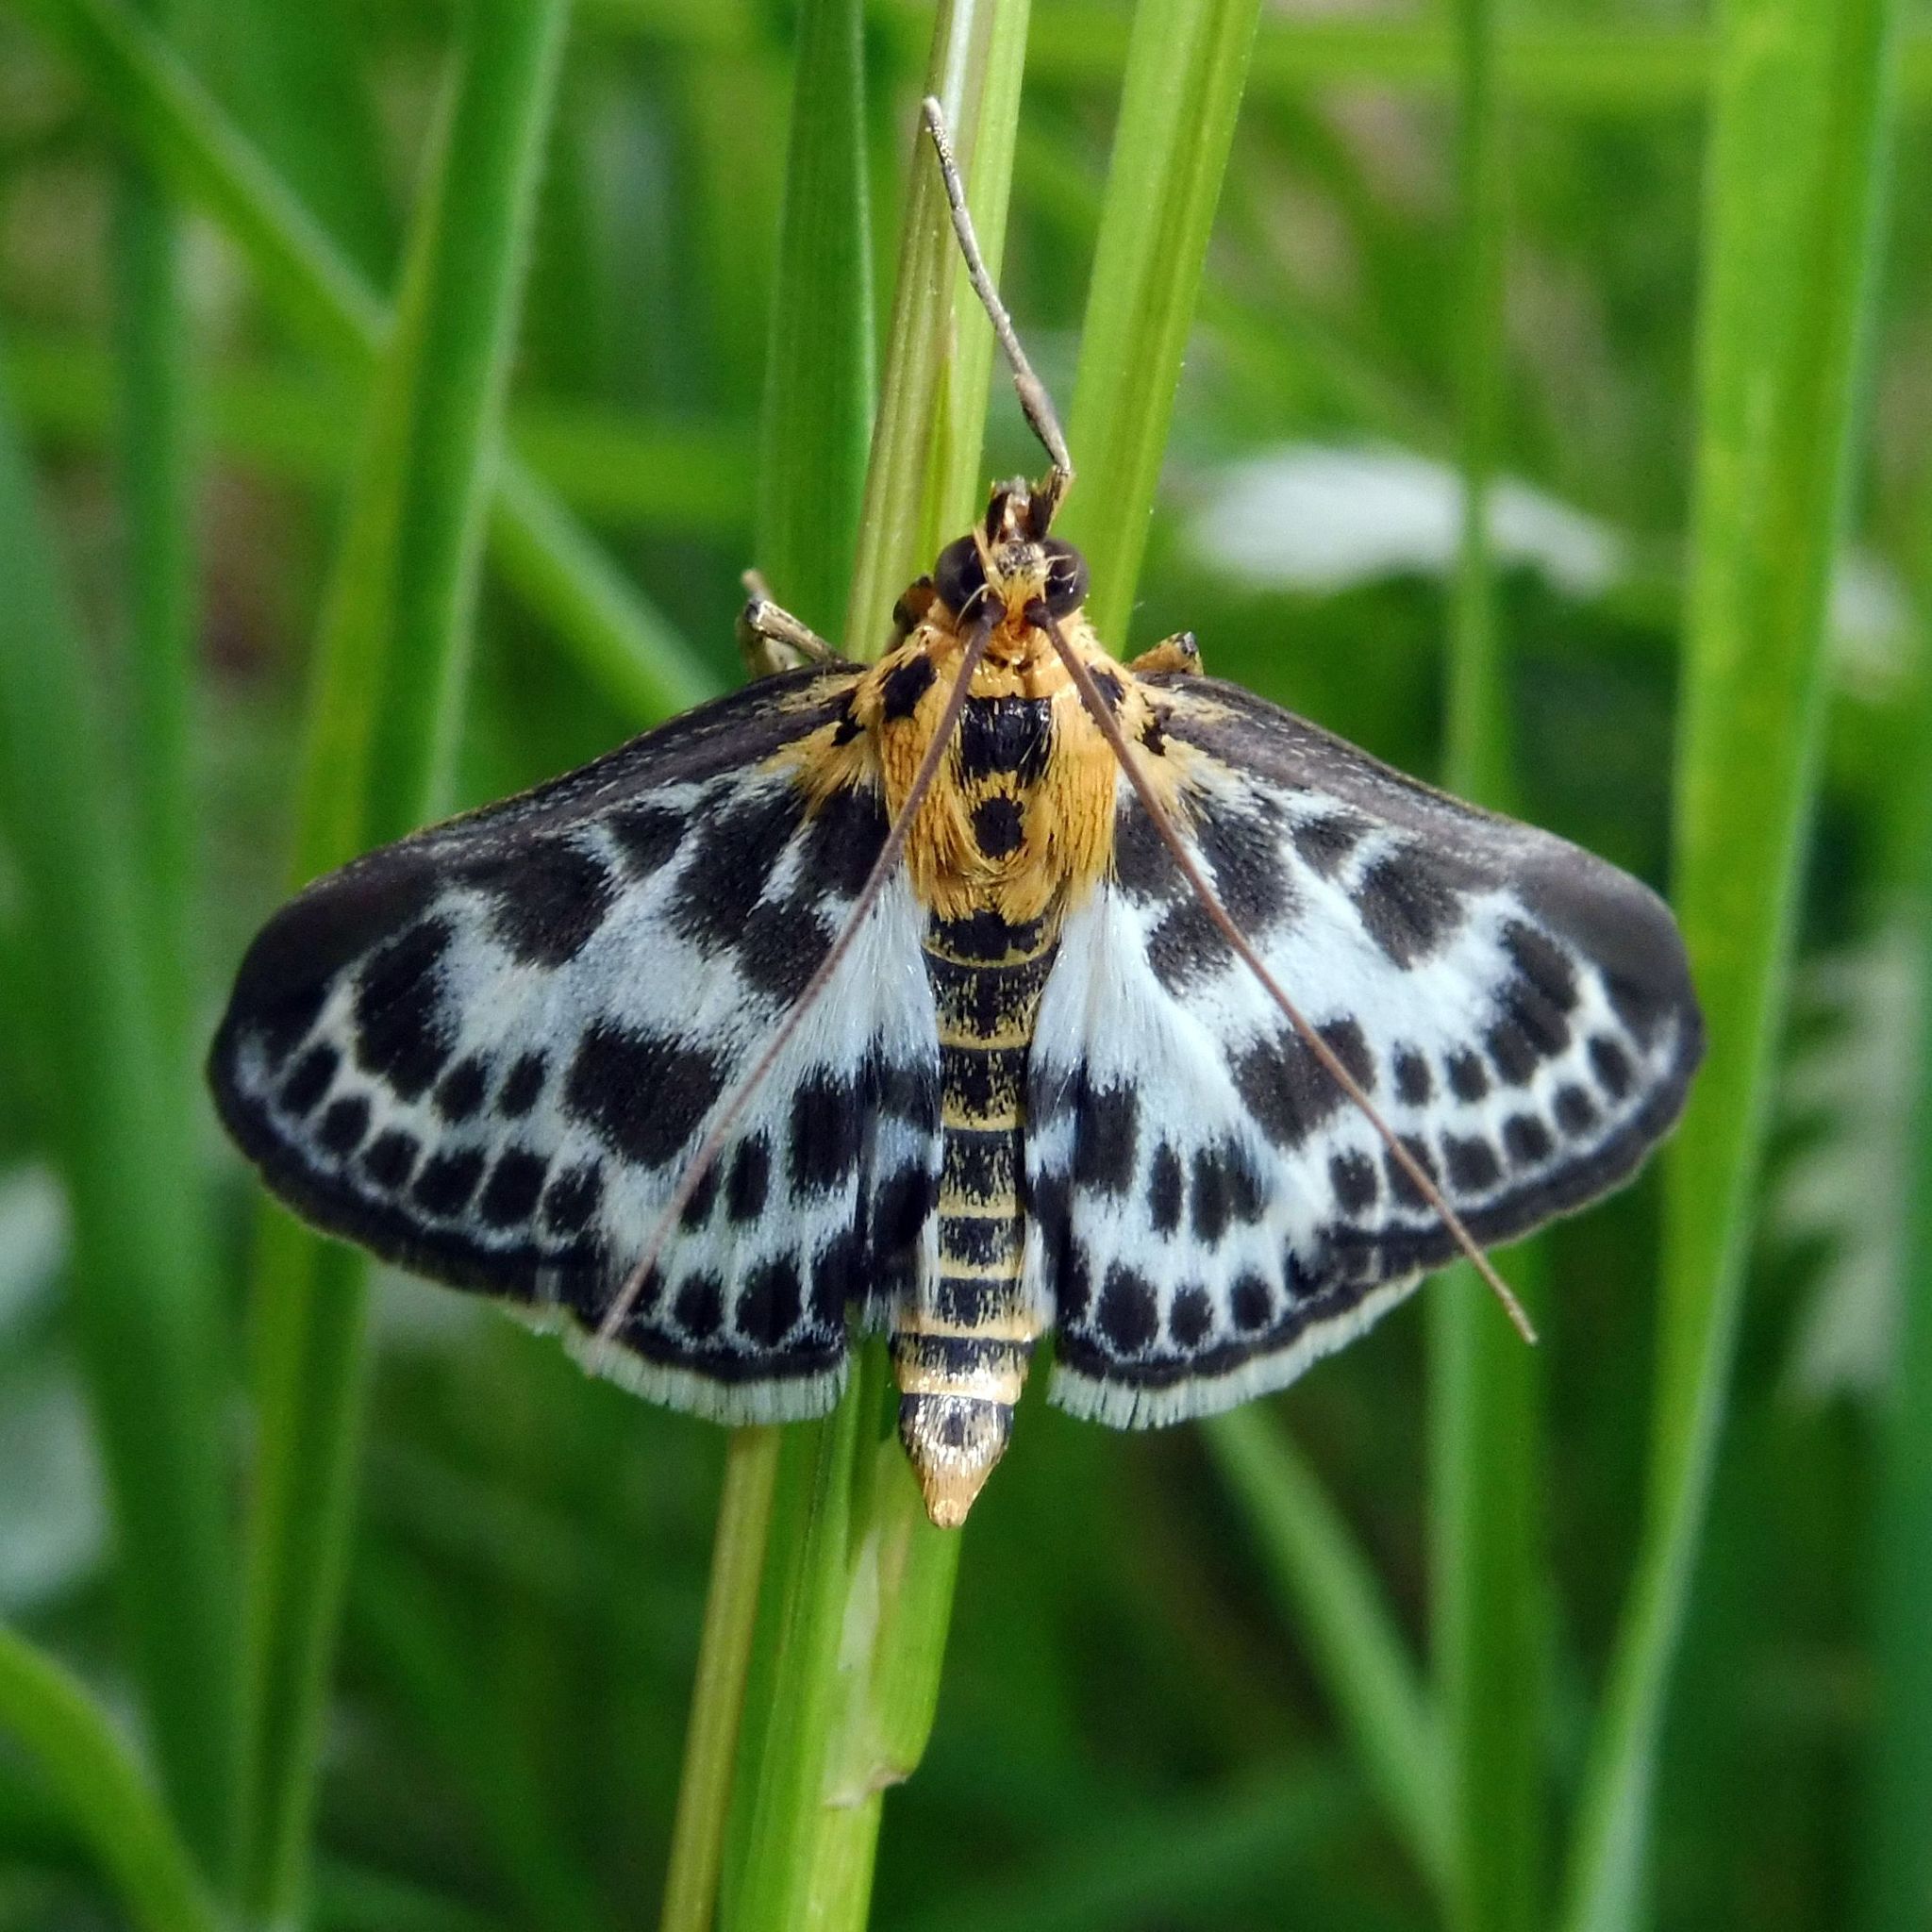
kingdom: Animalia
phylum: Arthropoda
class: Insecta
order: Lepidoptera
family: Crambidae
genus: Anania
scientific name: Anania hortulata
